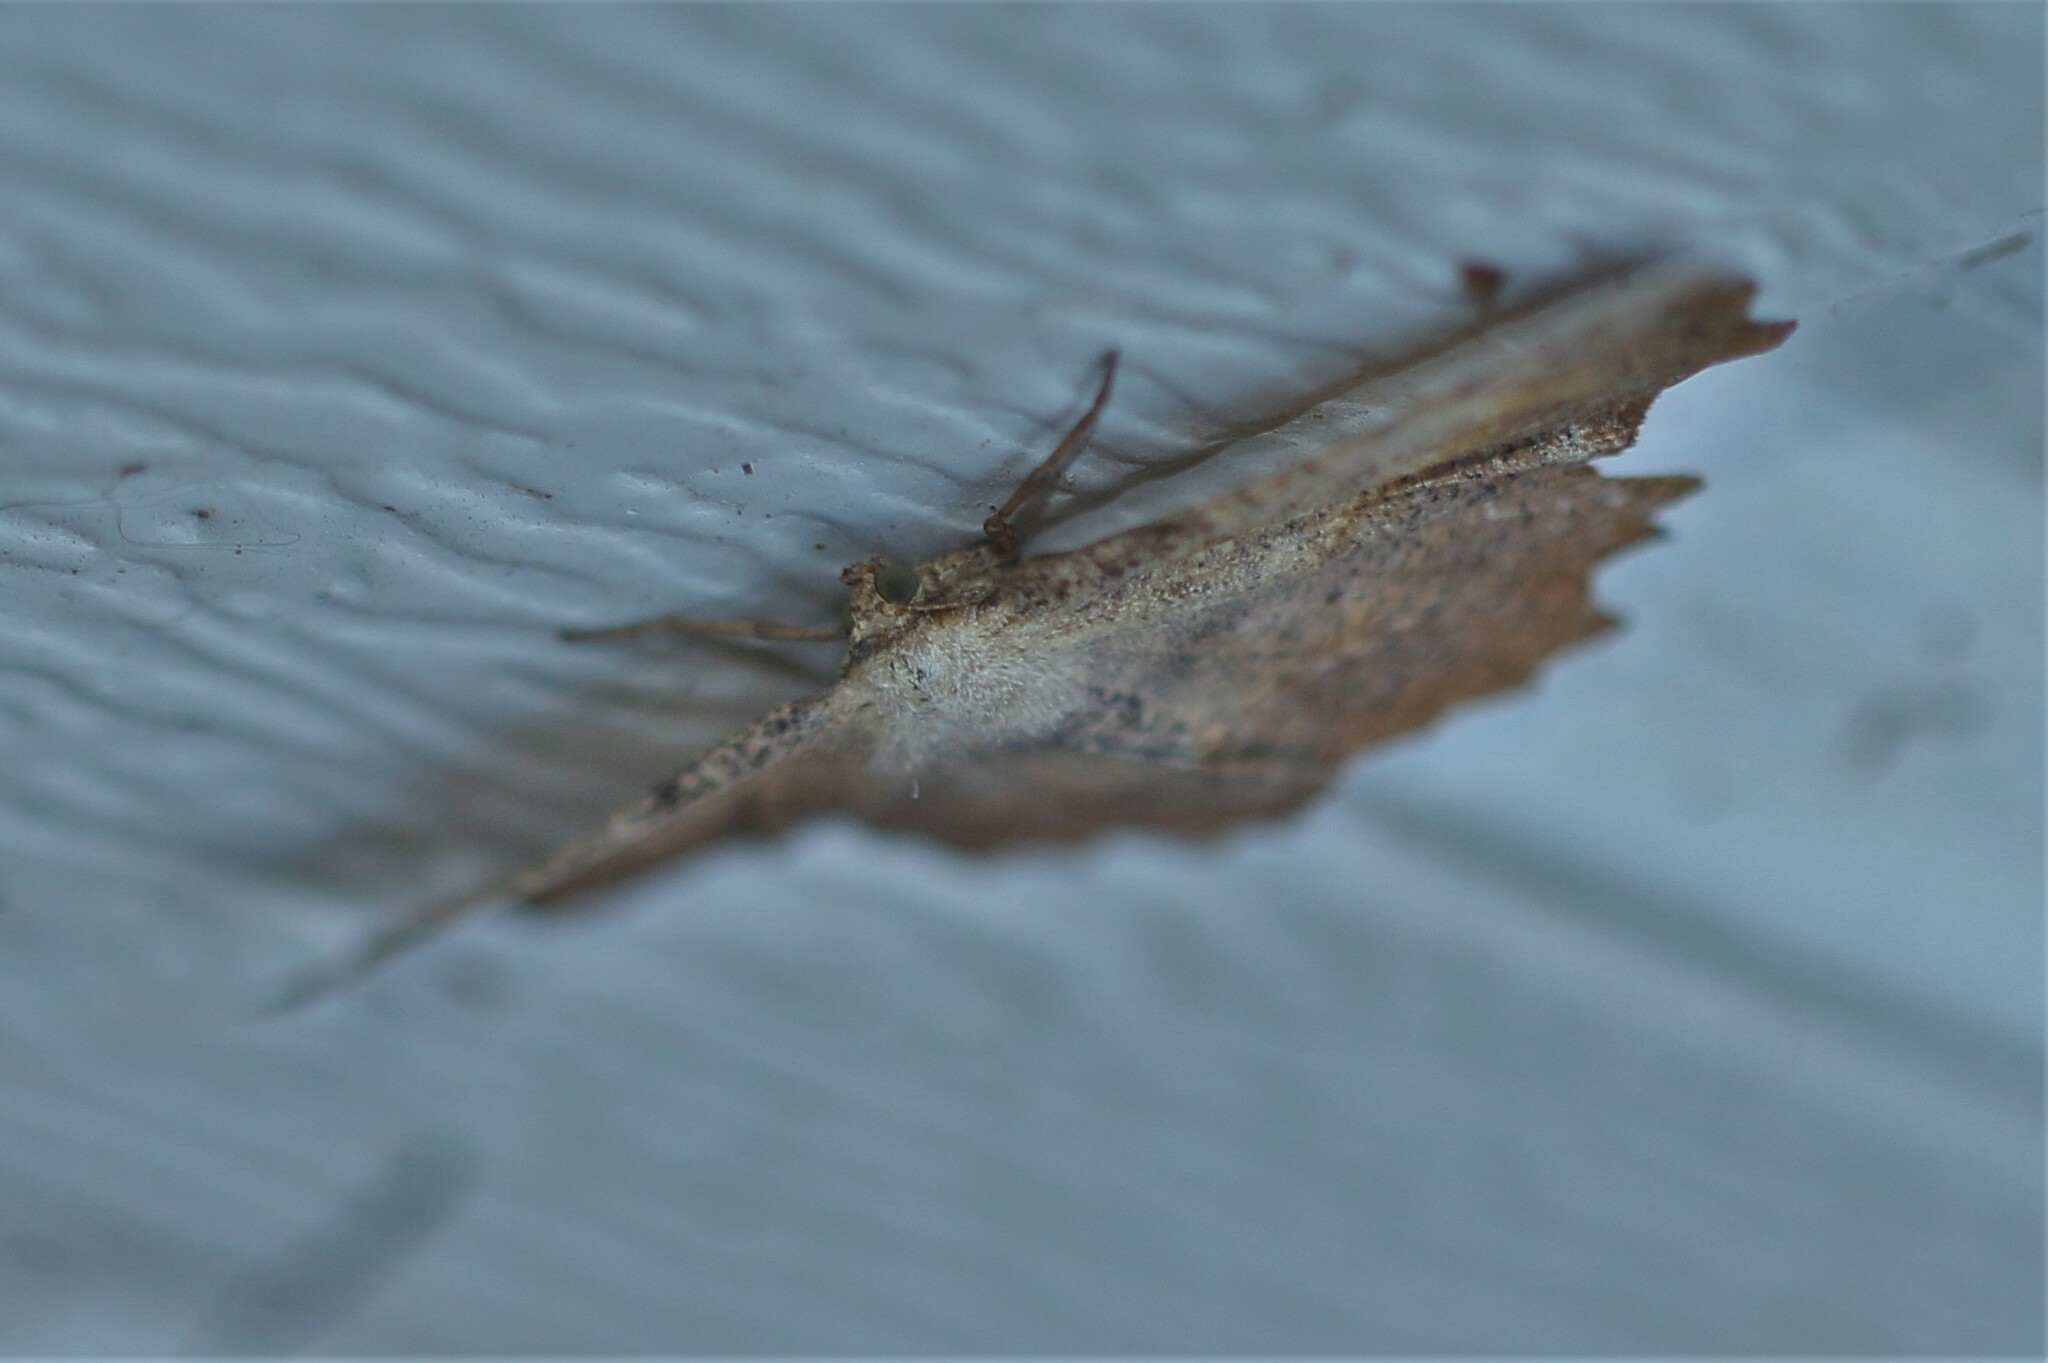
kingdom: Animalia
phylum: Arthropoda
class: Insecta
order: Lepidoptera
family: Geometridae
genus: Euchlaena
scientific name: Euchlaena muzaria
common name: Muzaria euchlaena
